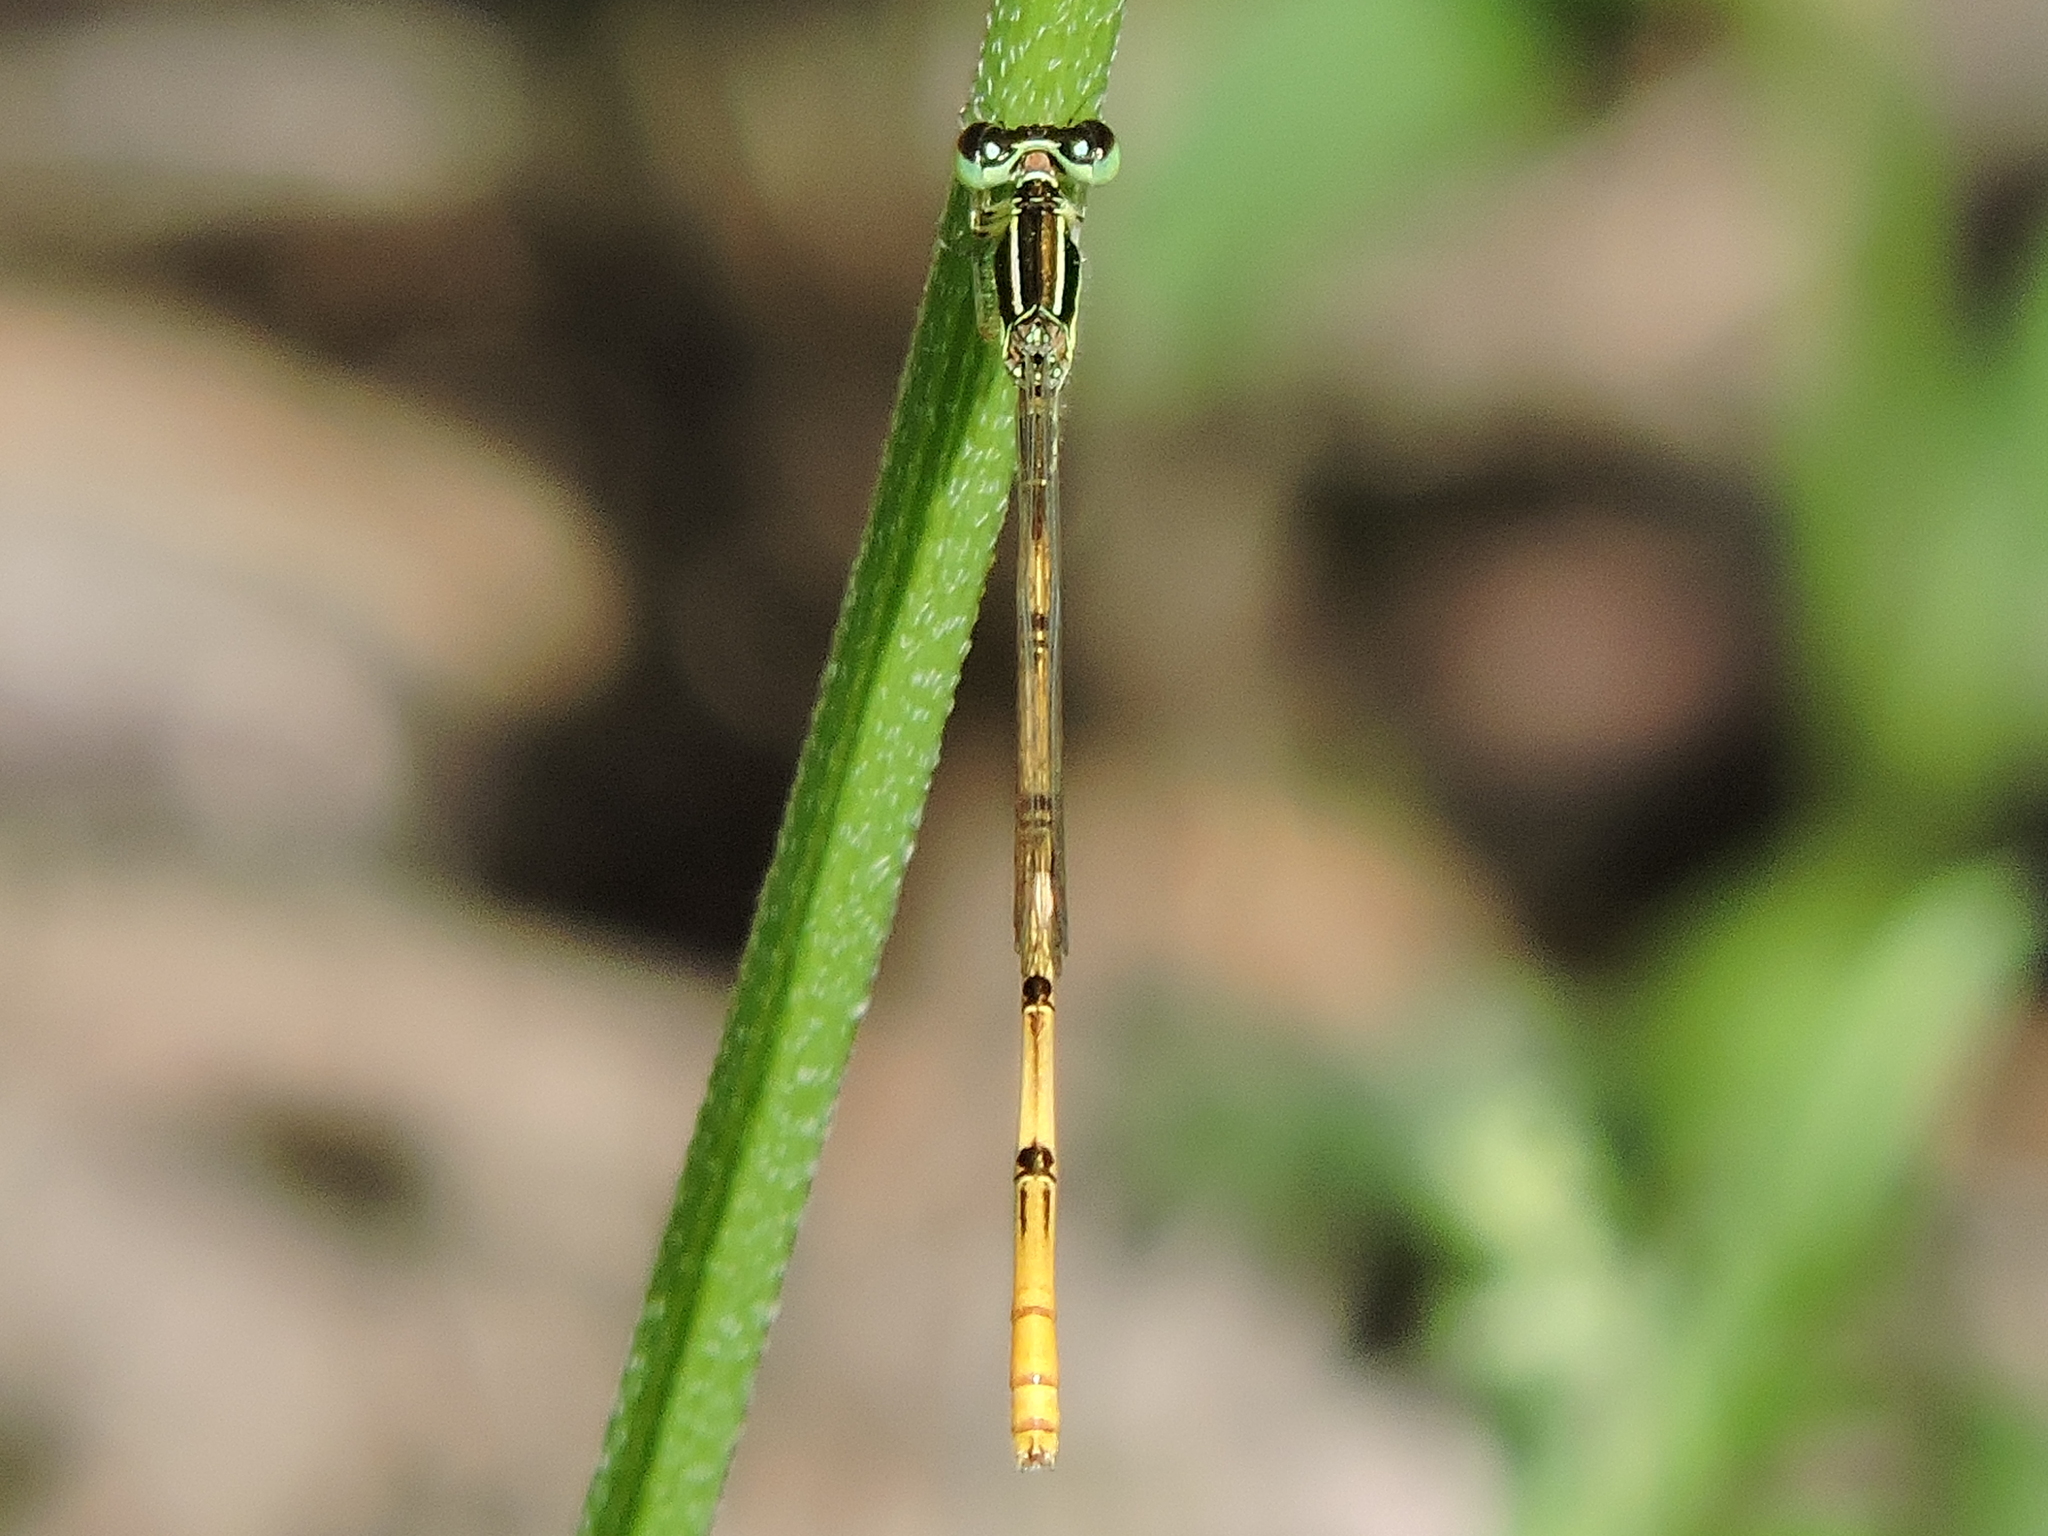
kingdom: Animalia
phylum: Arthropoda
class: Insecta
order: Odonata
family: Coenagrionidae
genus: Ischnura
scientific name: Ischnura hastata
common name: Citrine forktail
